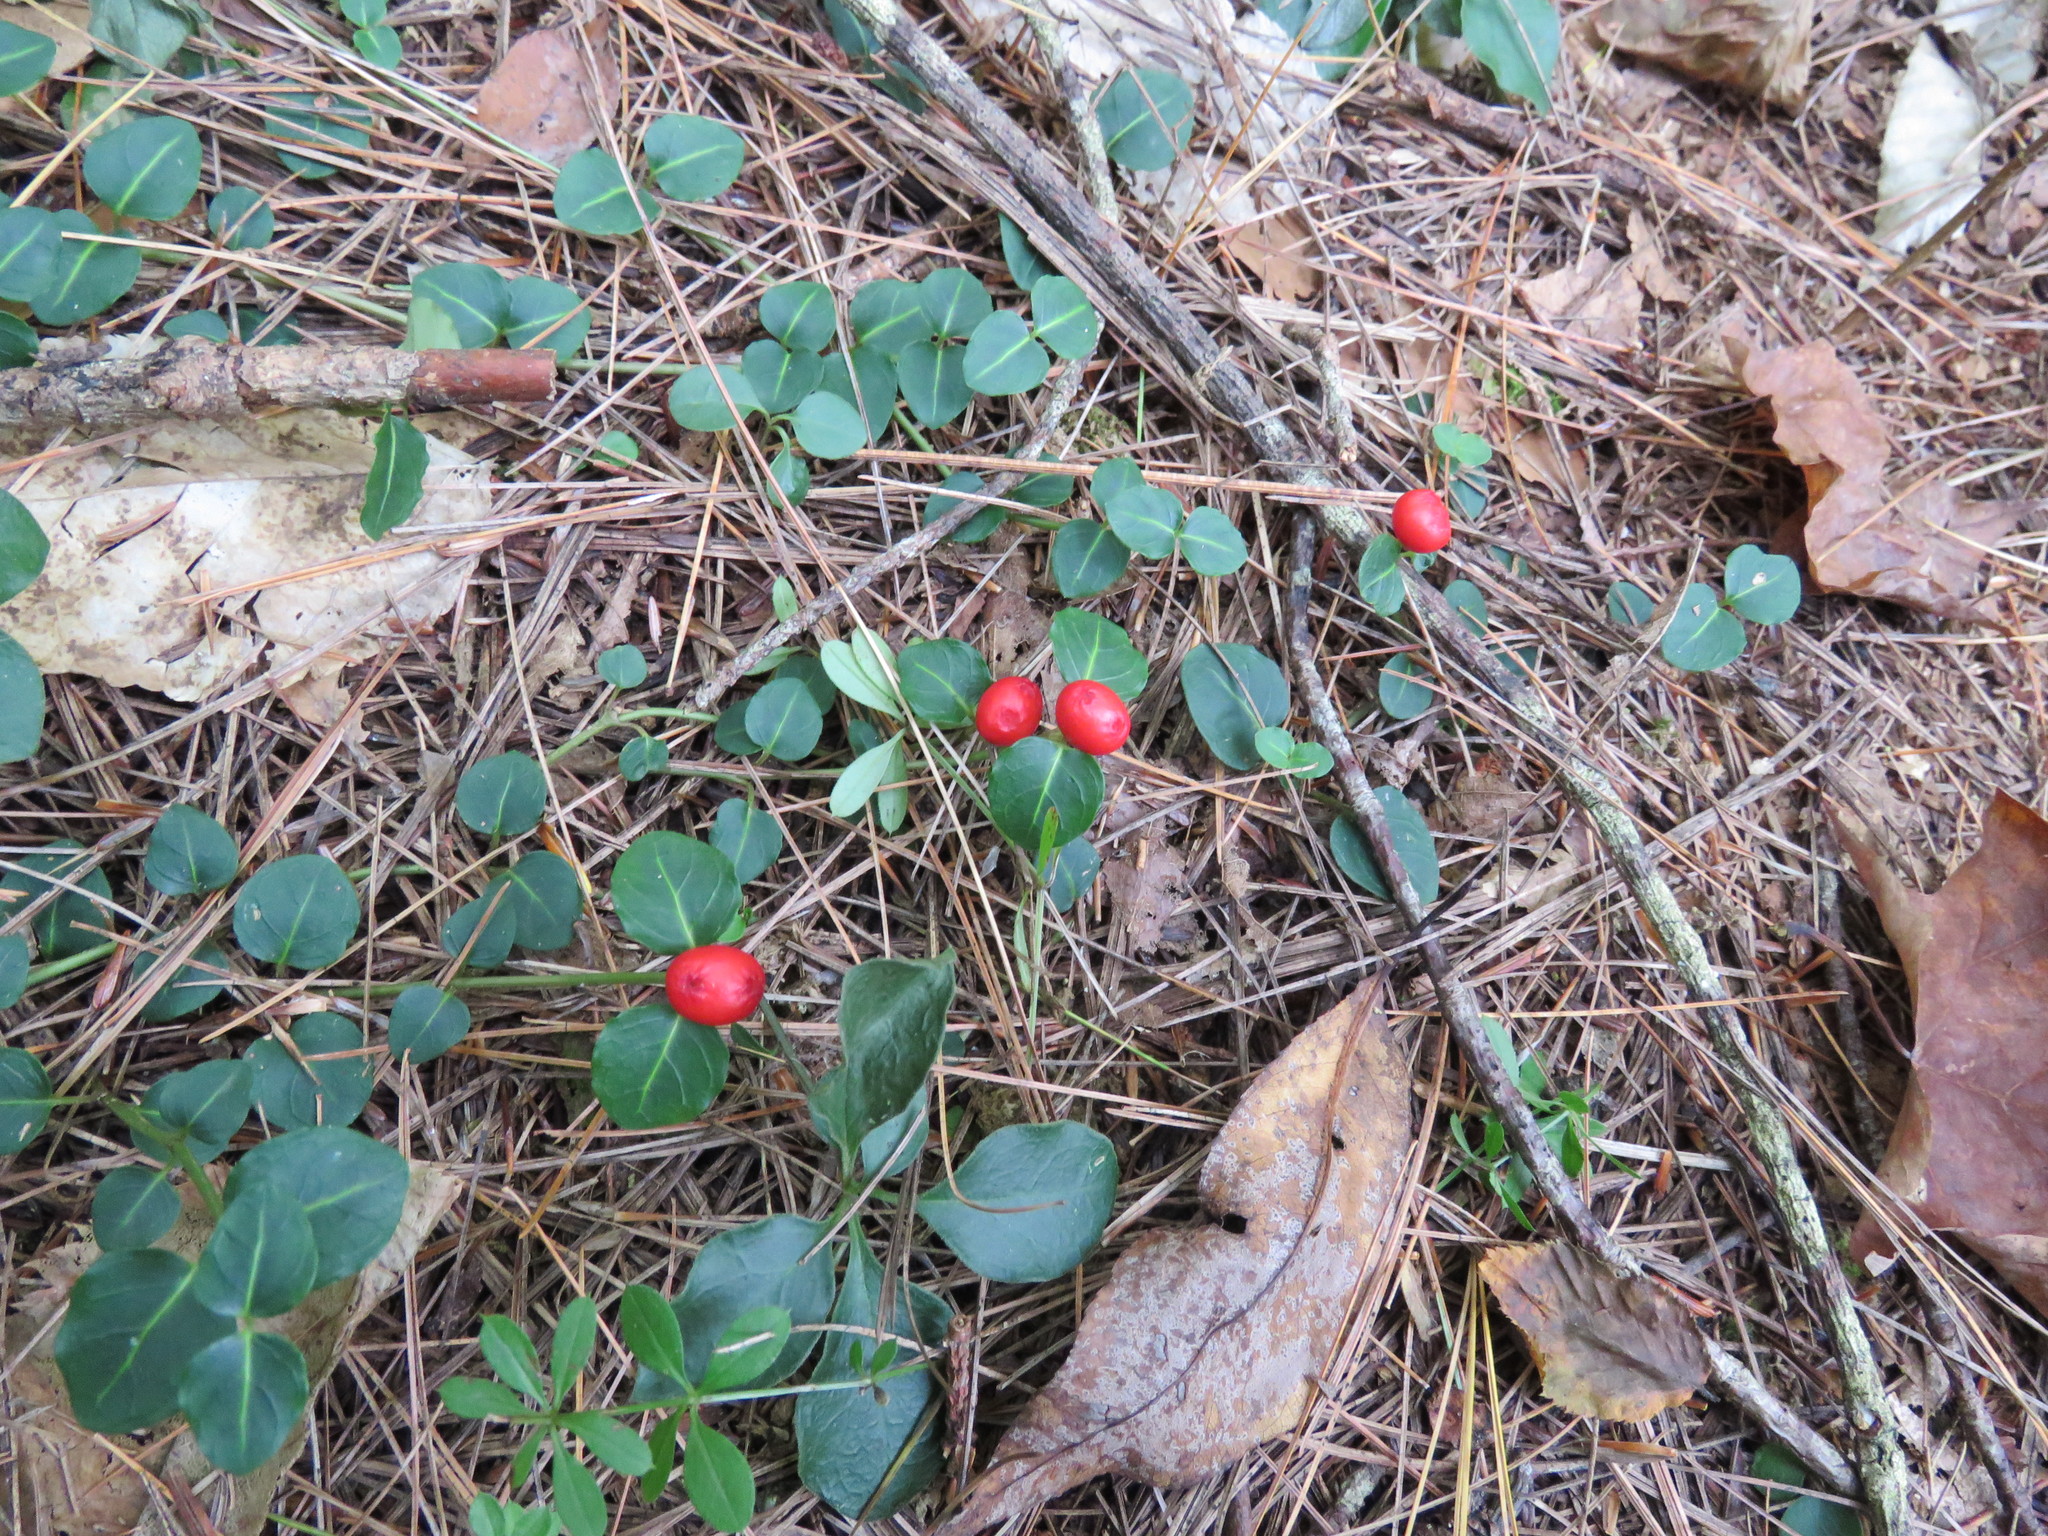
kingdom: Plantae
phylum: Tracheophyta
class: Magnoliopsida
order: Gentianales
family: Rubiaceae
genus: Mitchella
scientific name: Mitchella repens
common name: Partridge-berry
